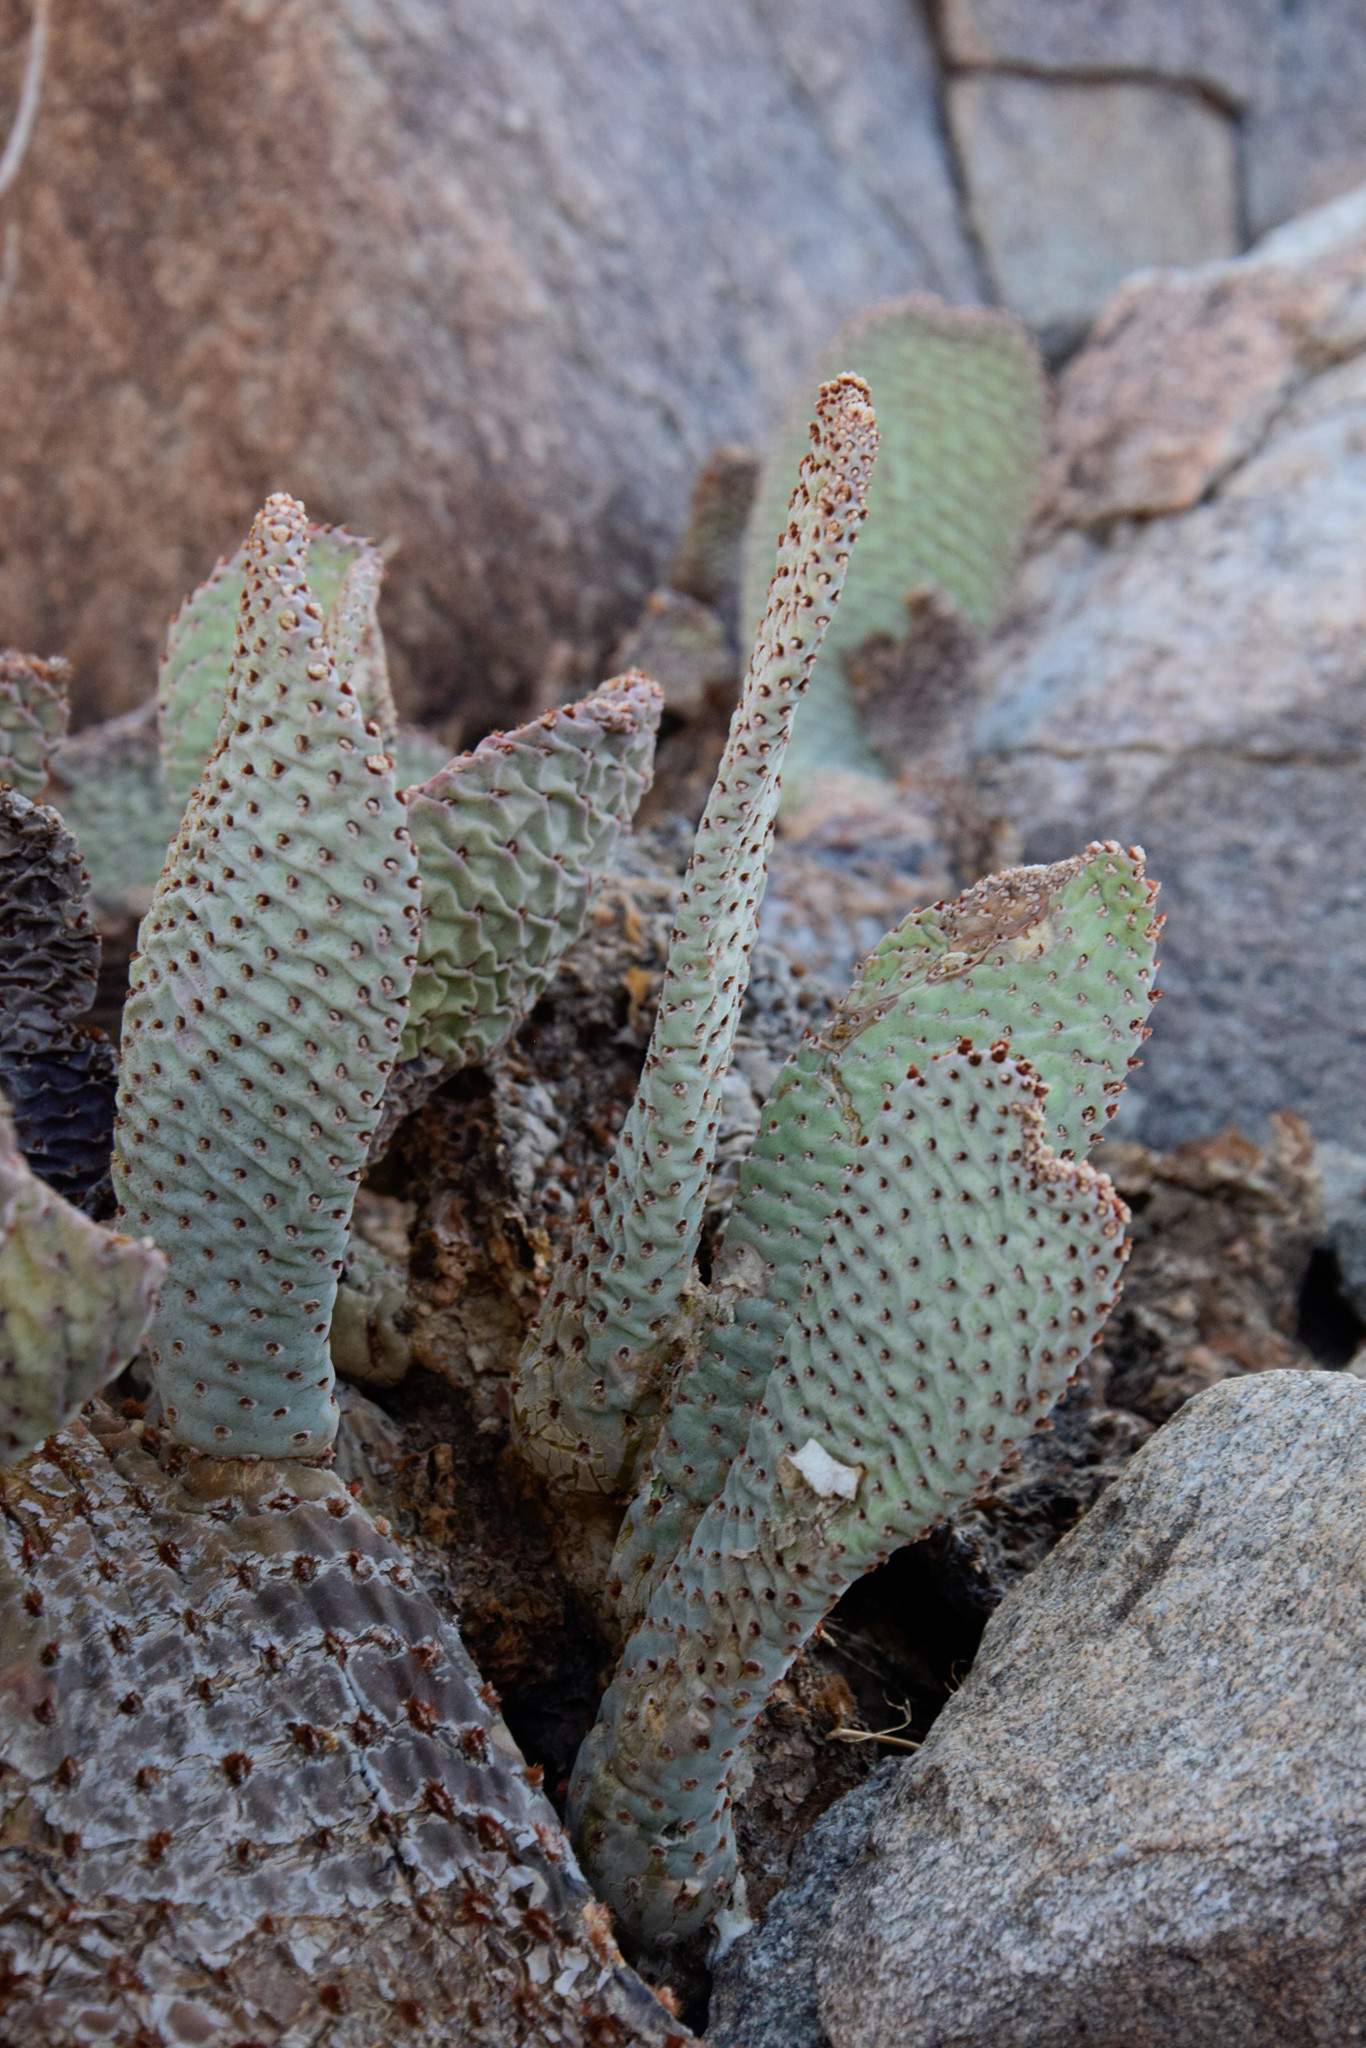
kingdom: Plantae
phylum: Tracheophyta
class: Magnoliopsida
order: Caryophyllales
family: Cactaceae
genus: Opuntia
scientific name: Opuntia basilaris
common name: Beavertail prickly-pear
